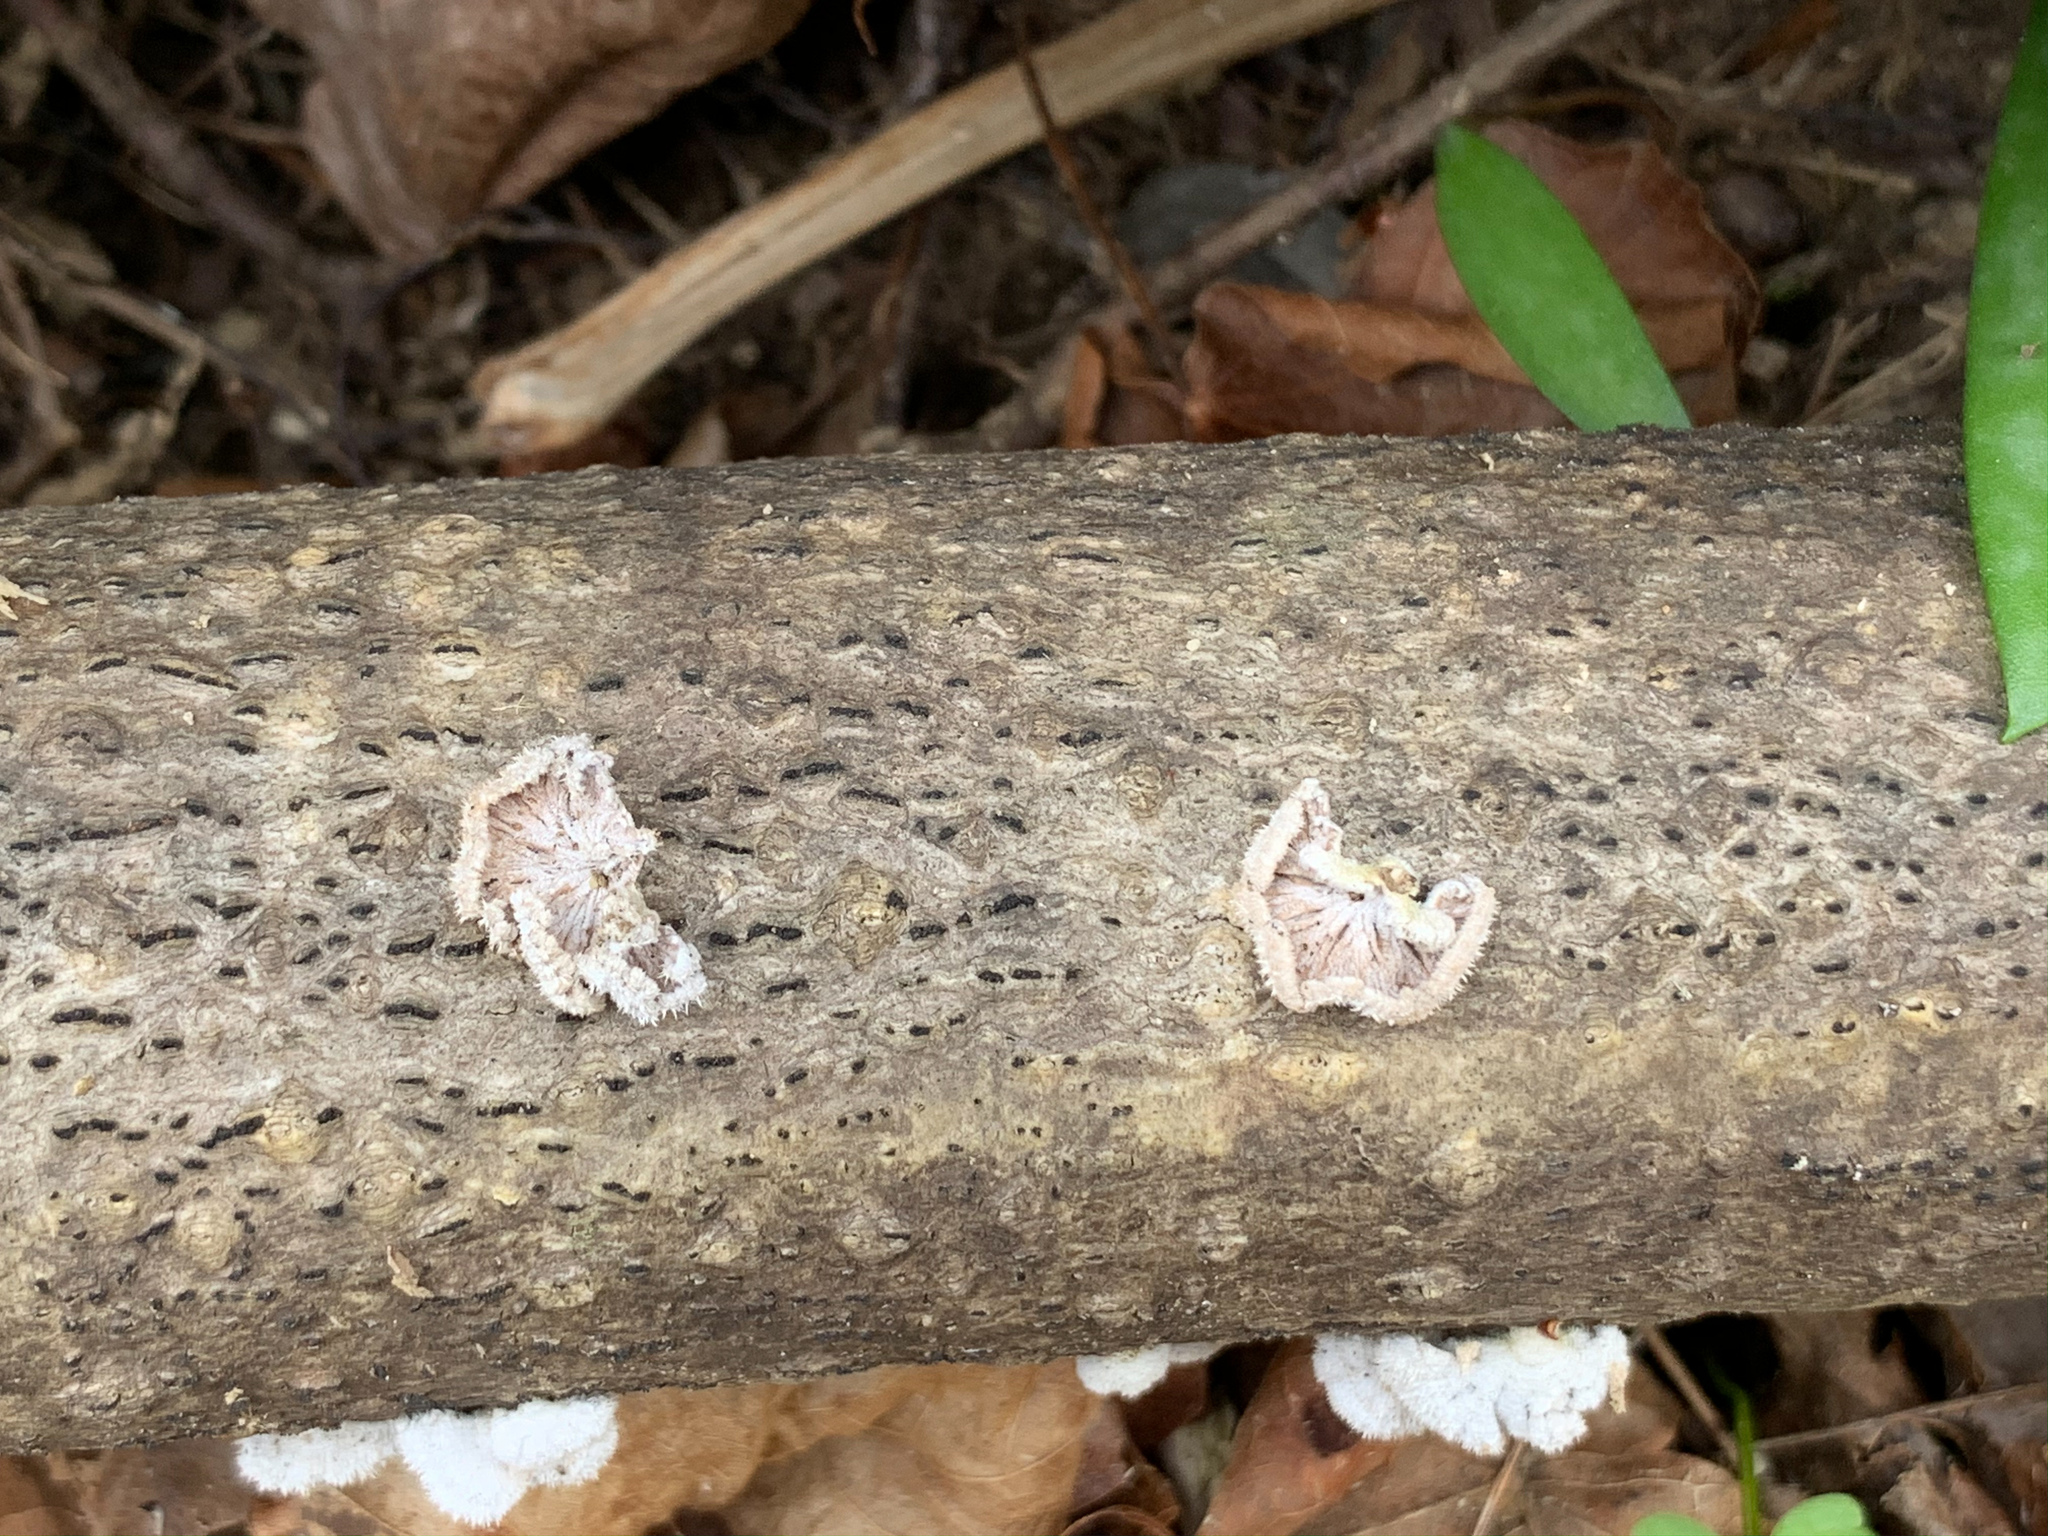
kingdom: Fungi
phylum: Basidiomycota
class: Agaricomycetes
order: Agaricales
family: Schizophyllaceae
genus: Schizophyllum
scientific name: Schizophyllum commune
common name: Common porecrust
